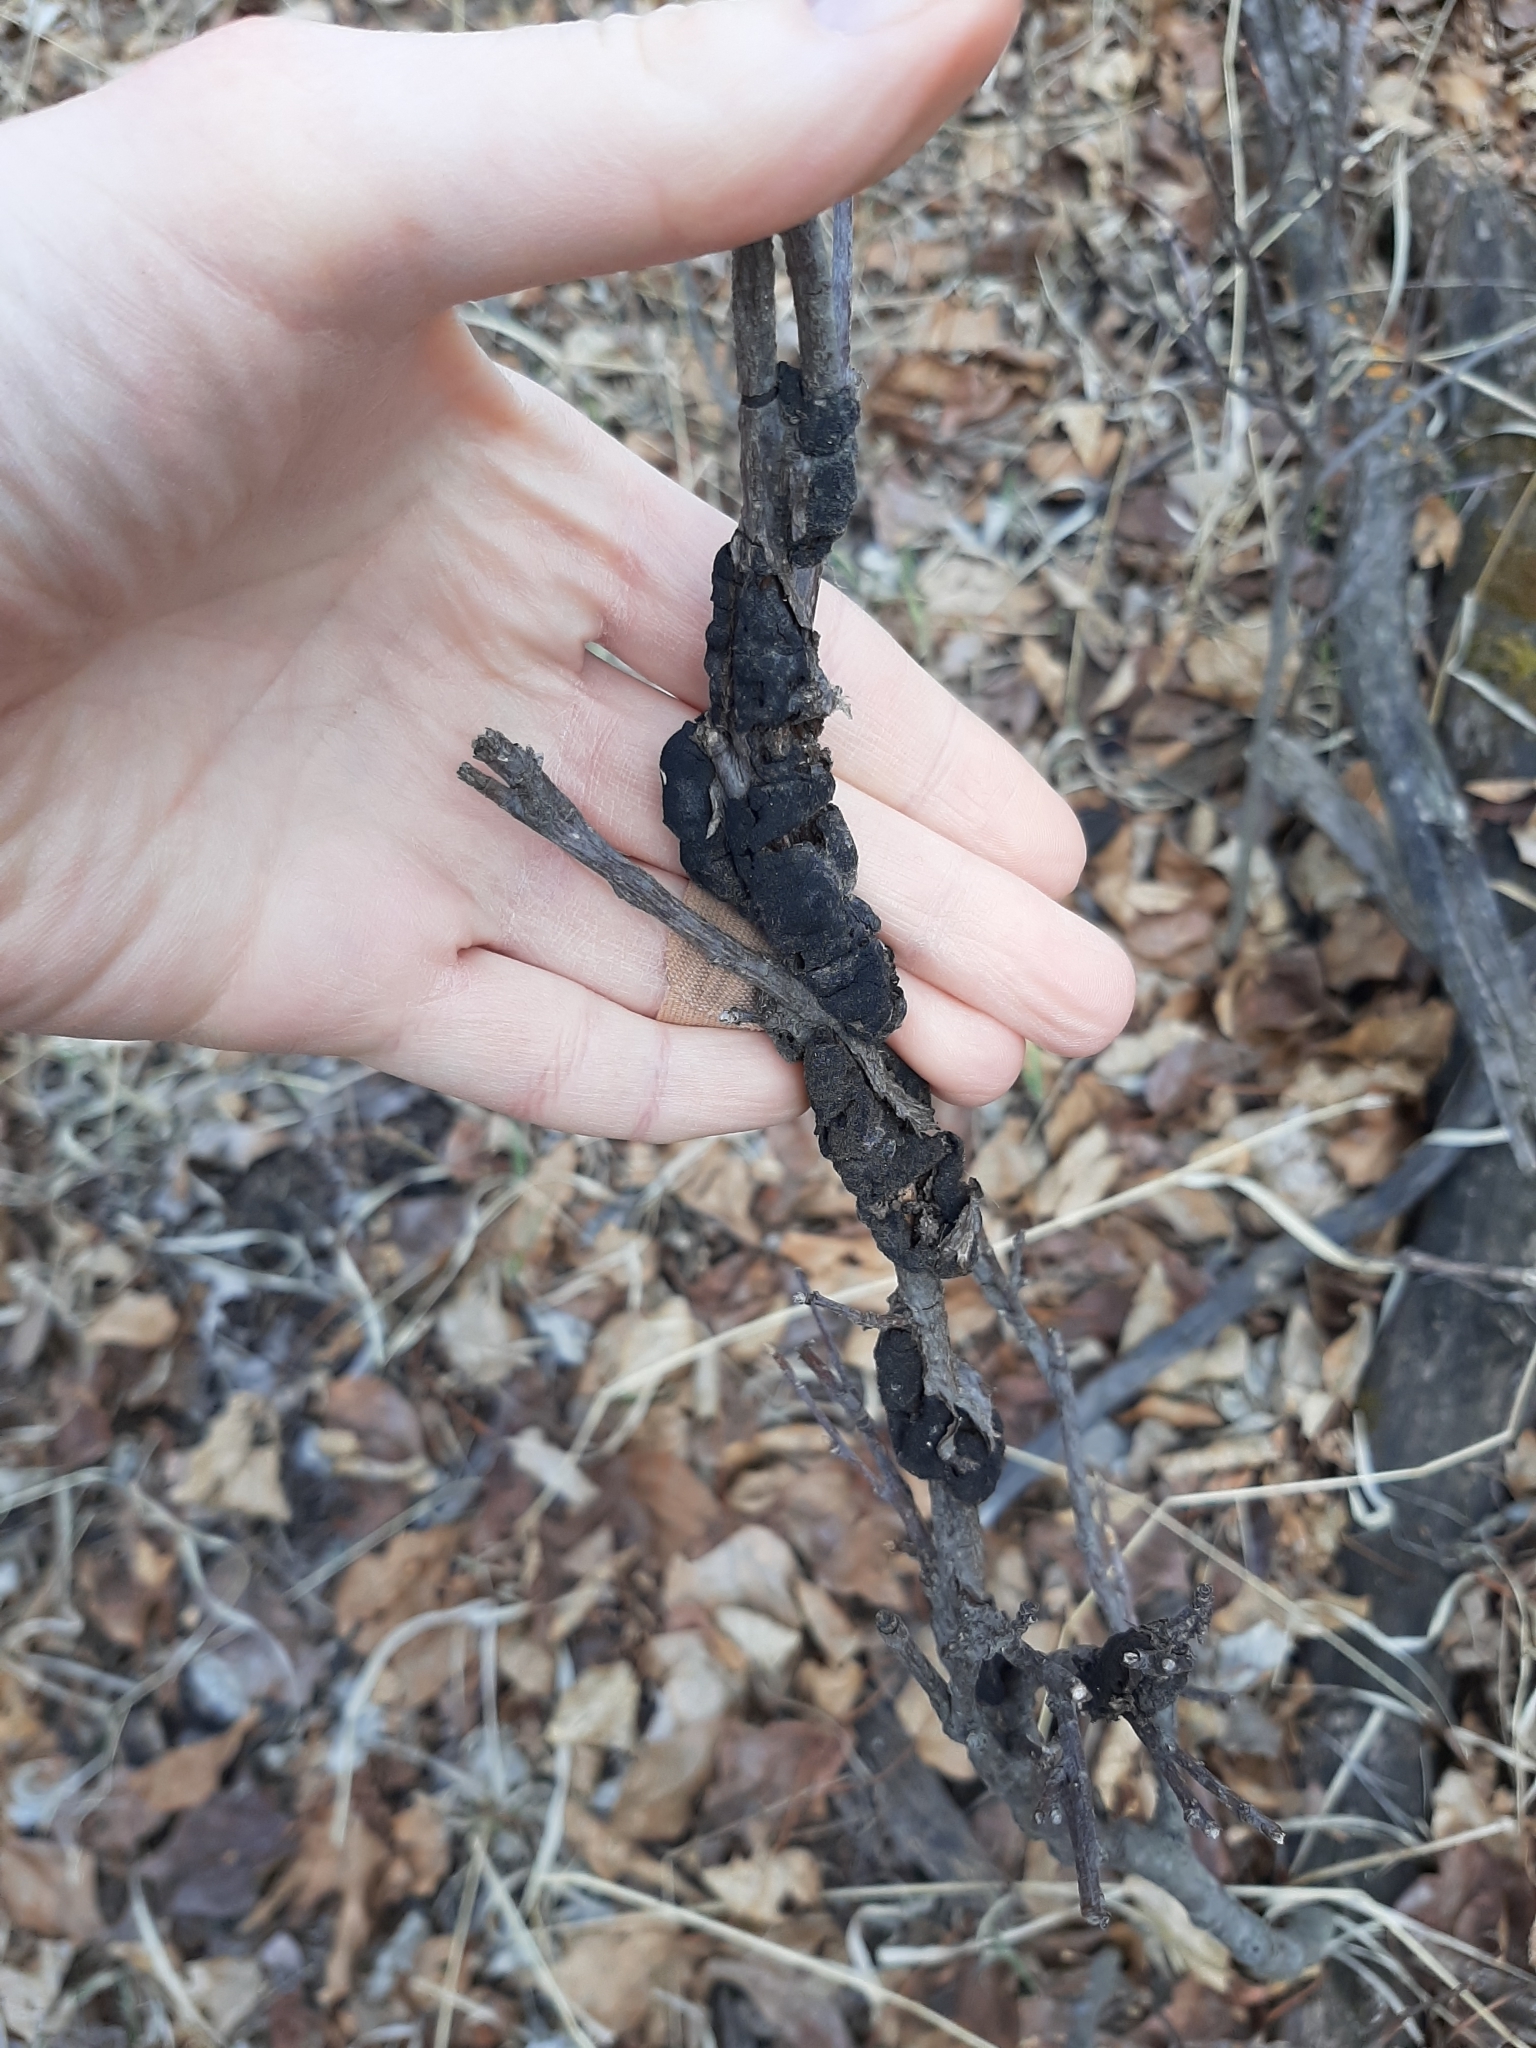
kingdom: Fungi
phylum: Ascomycota
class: Dothideomycetes
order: Venturiales
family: Venturiaceae
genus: Apiosporina
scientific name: Apiosporina morbosa
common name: Black knot
